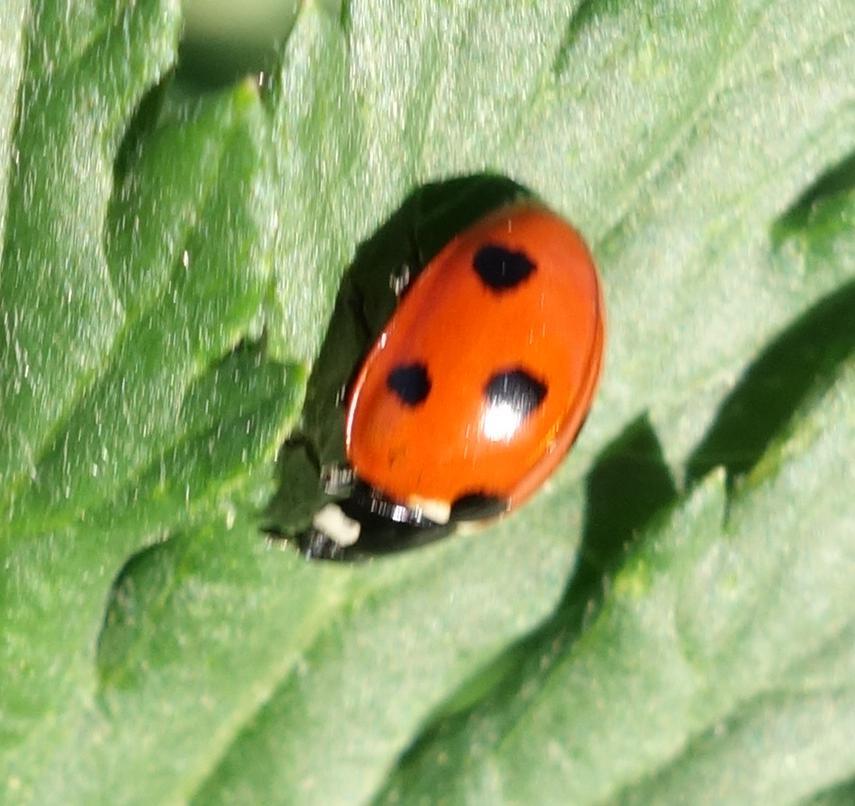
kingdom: Animalia
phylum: Arthropoda
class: Insecta
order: Coleoptera
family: Coccinellidae
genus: Coccinella
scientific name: Coccinella septempunctata
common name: Sevenspotted lady beetle
